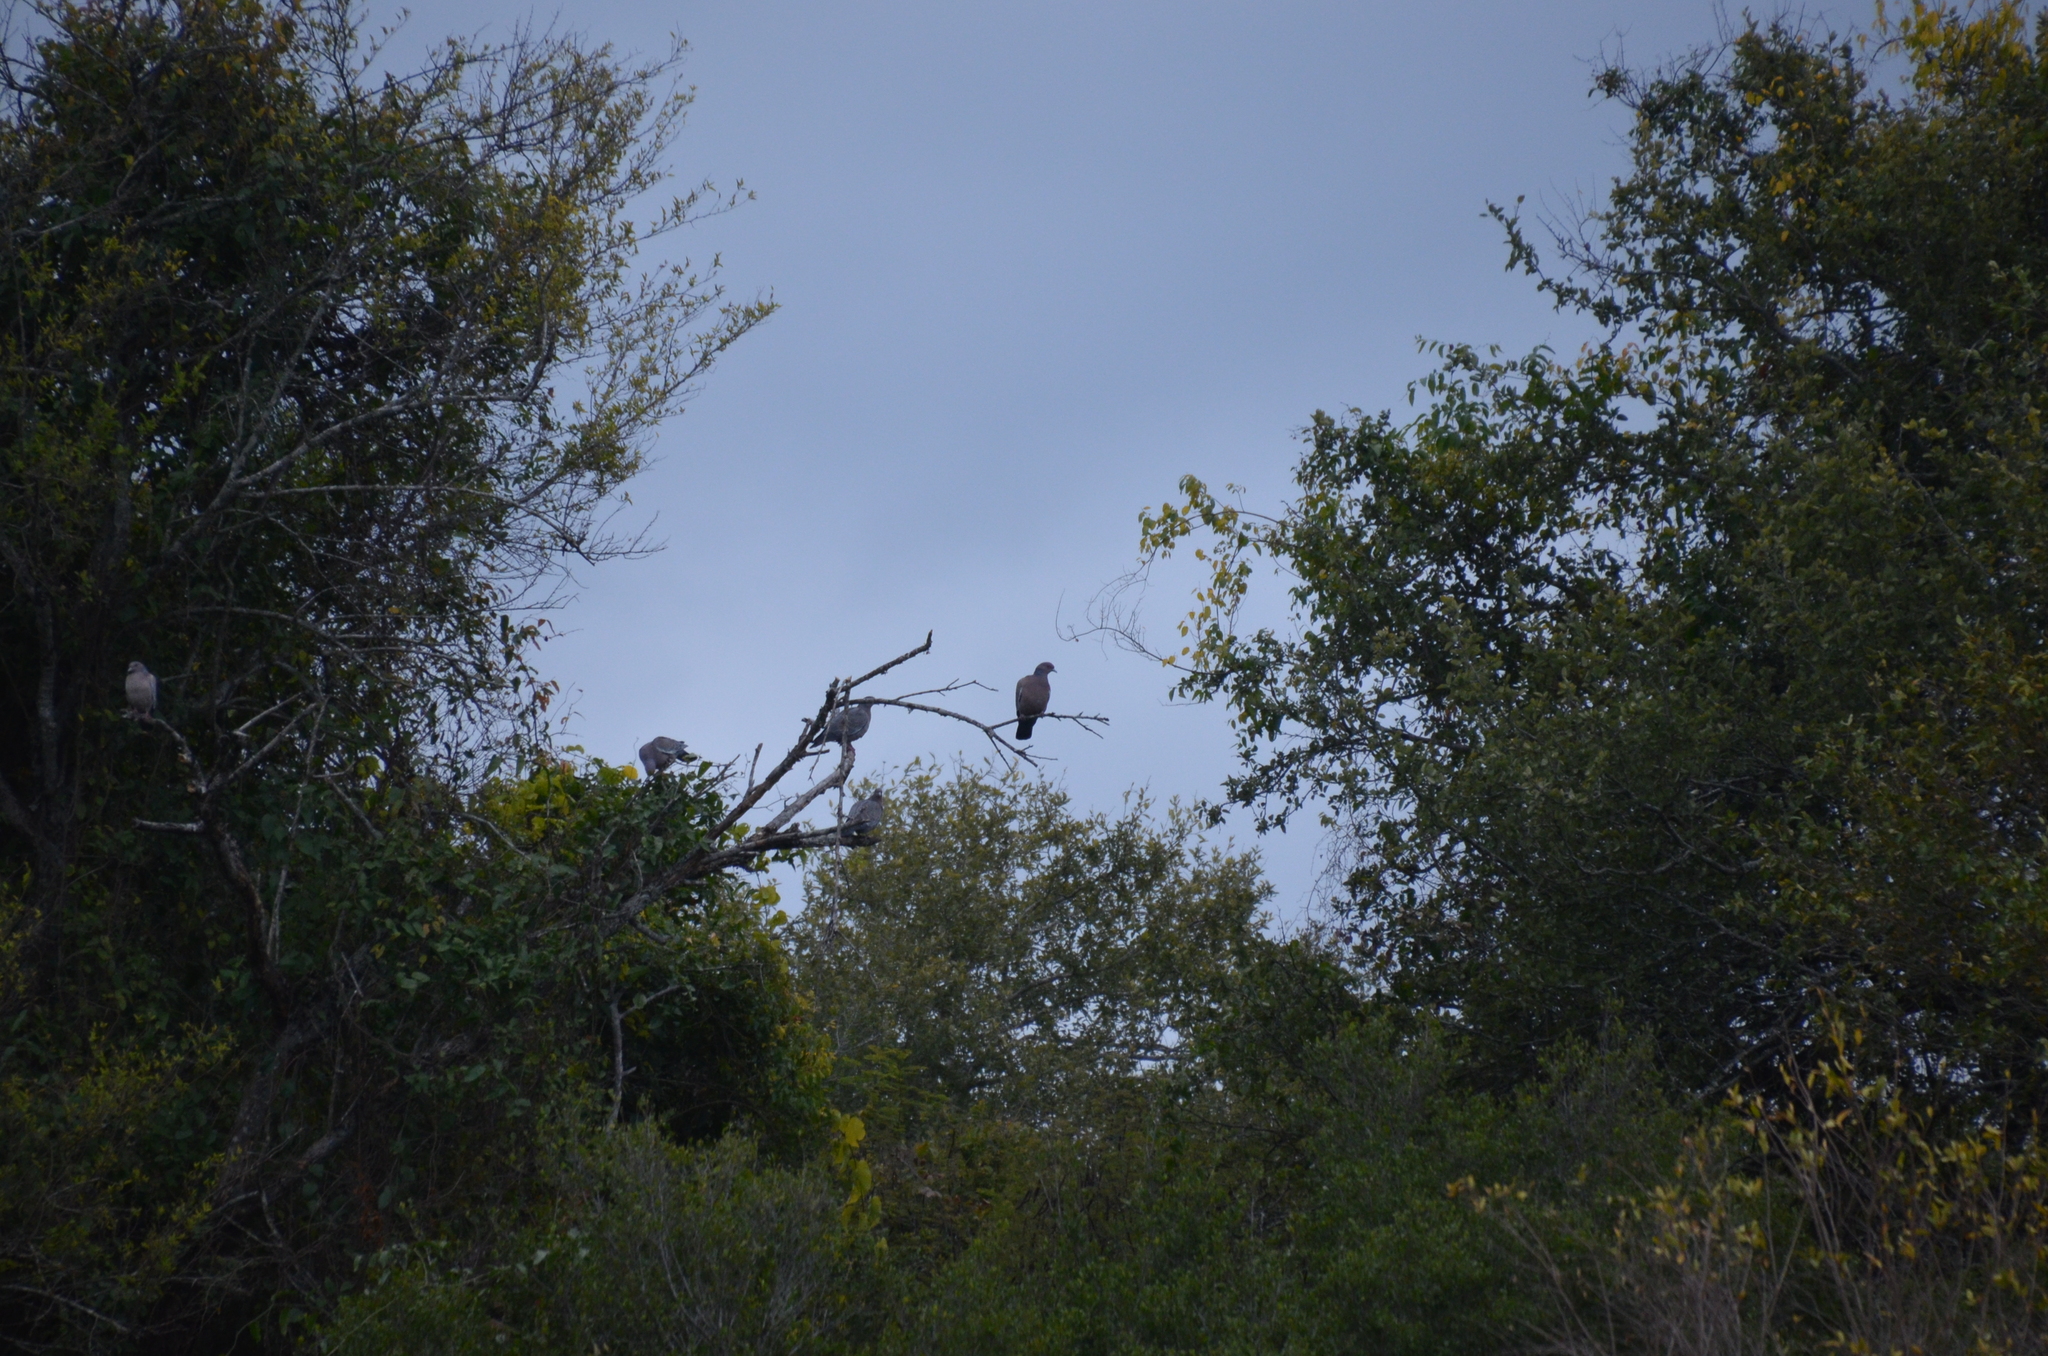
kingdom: Animalia
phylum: Chordata
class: Aves
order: Columbiformes
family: Columbidae
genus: Patagioenas
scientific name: Patagioenas picazuro
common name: Picazuro pigeon
